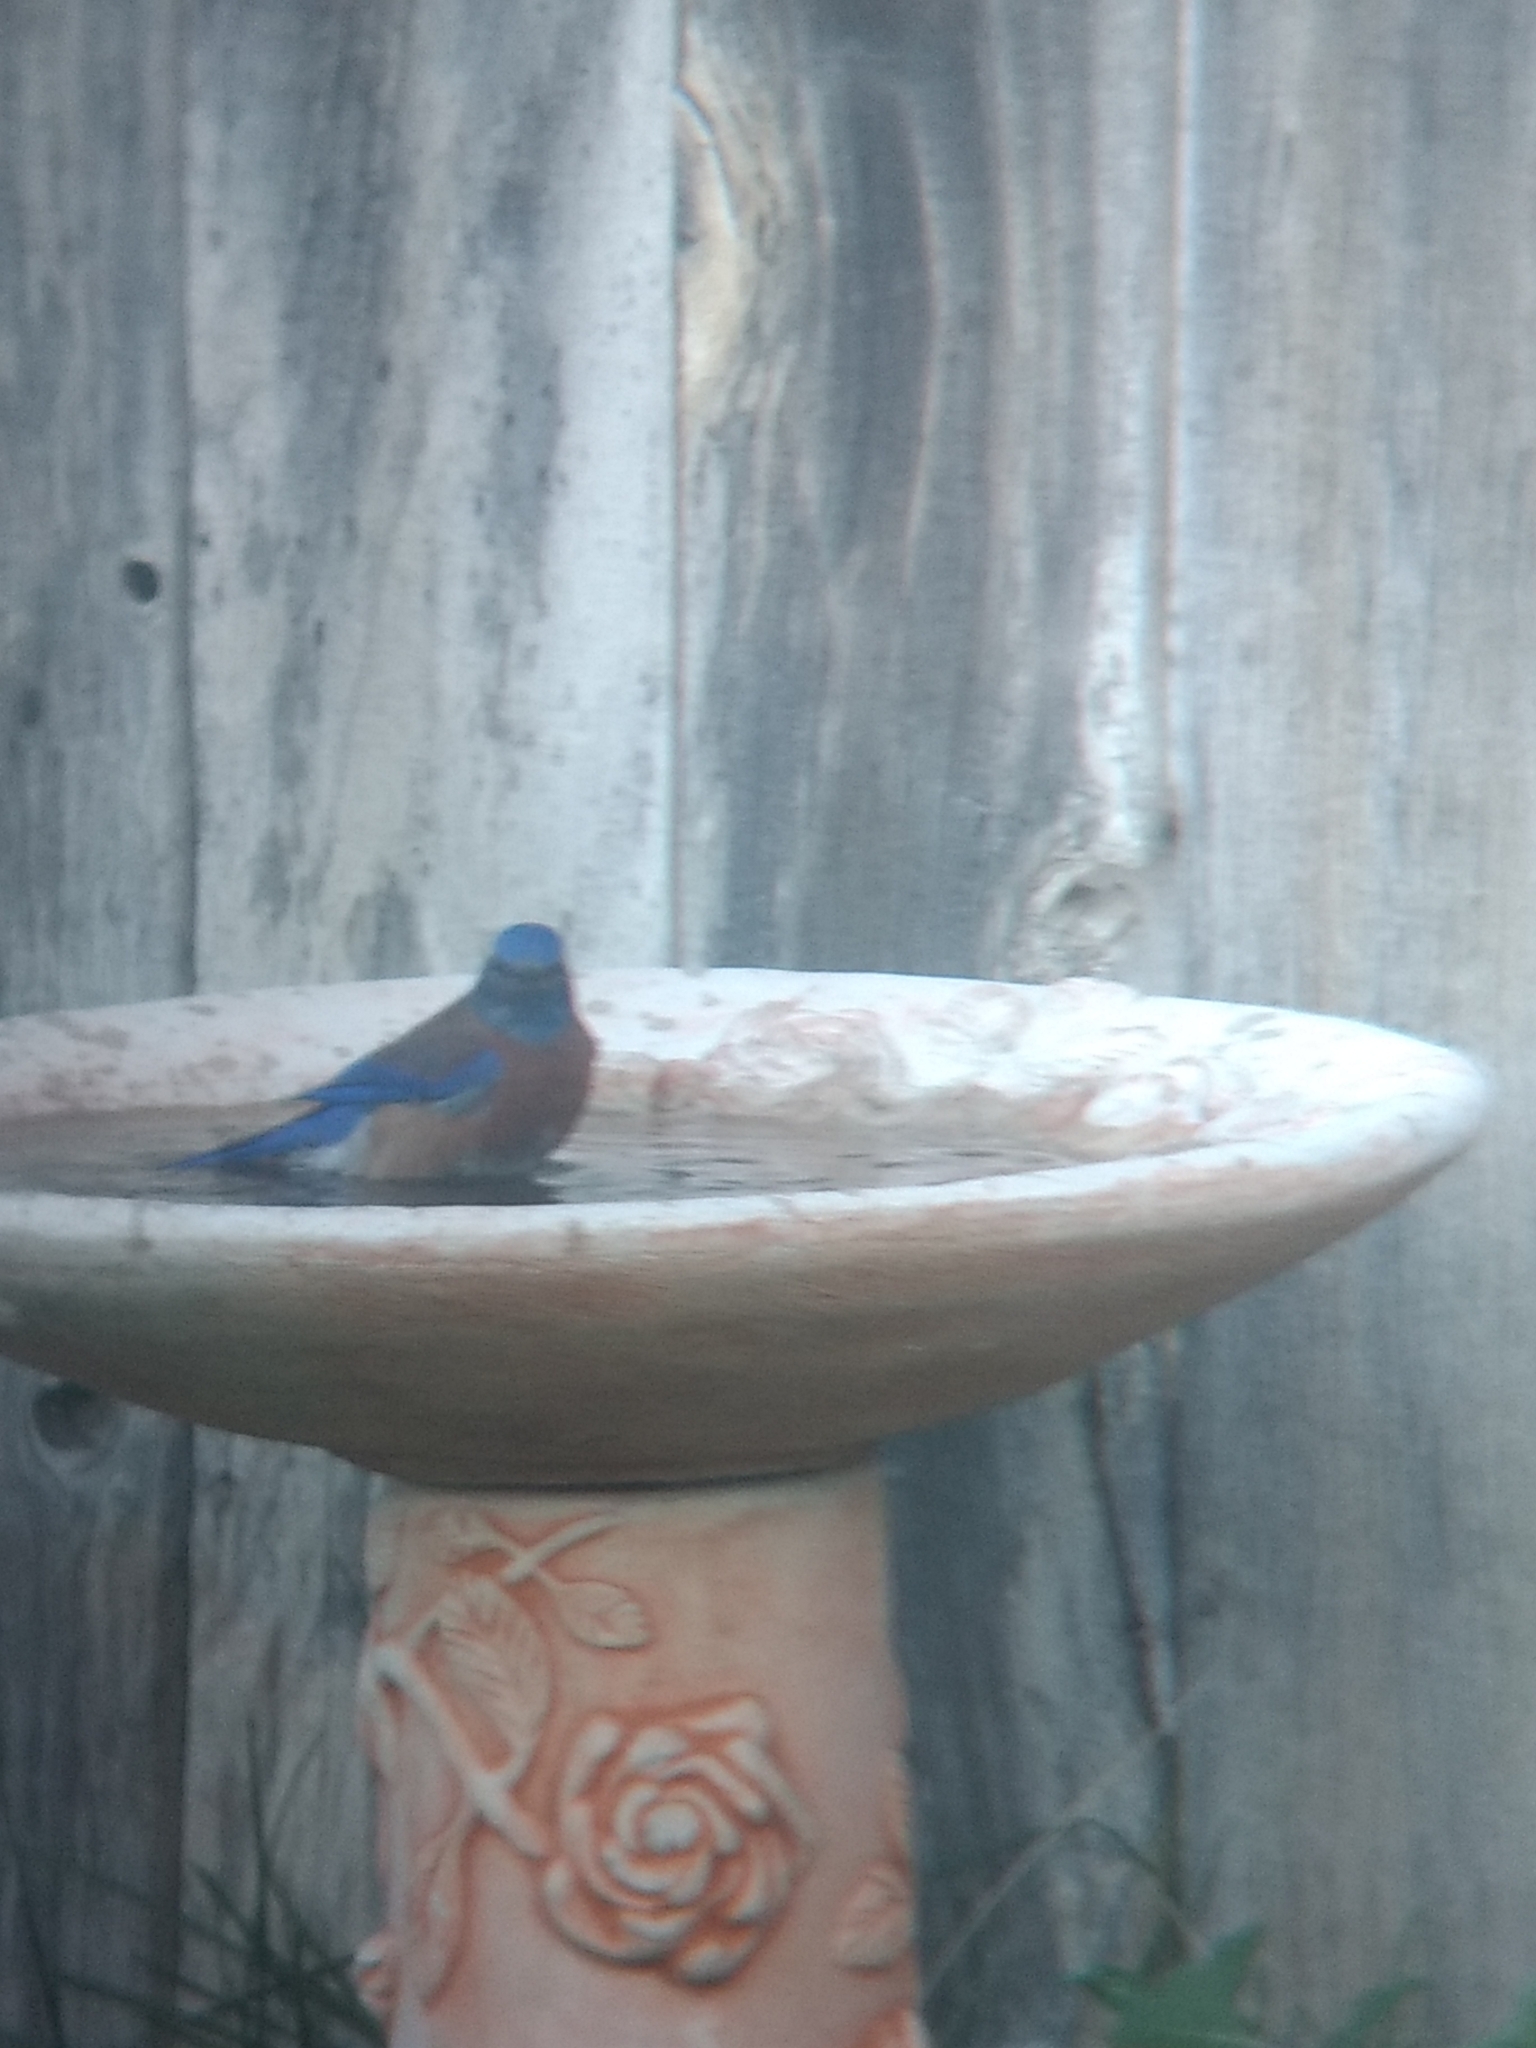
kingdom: Animalia
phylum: Chordata
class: Aves
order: Passeriformes
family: Turdidae
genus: Sialia
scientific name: Sialia mexicana
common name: Western bluebird
